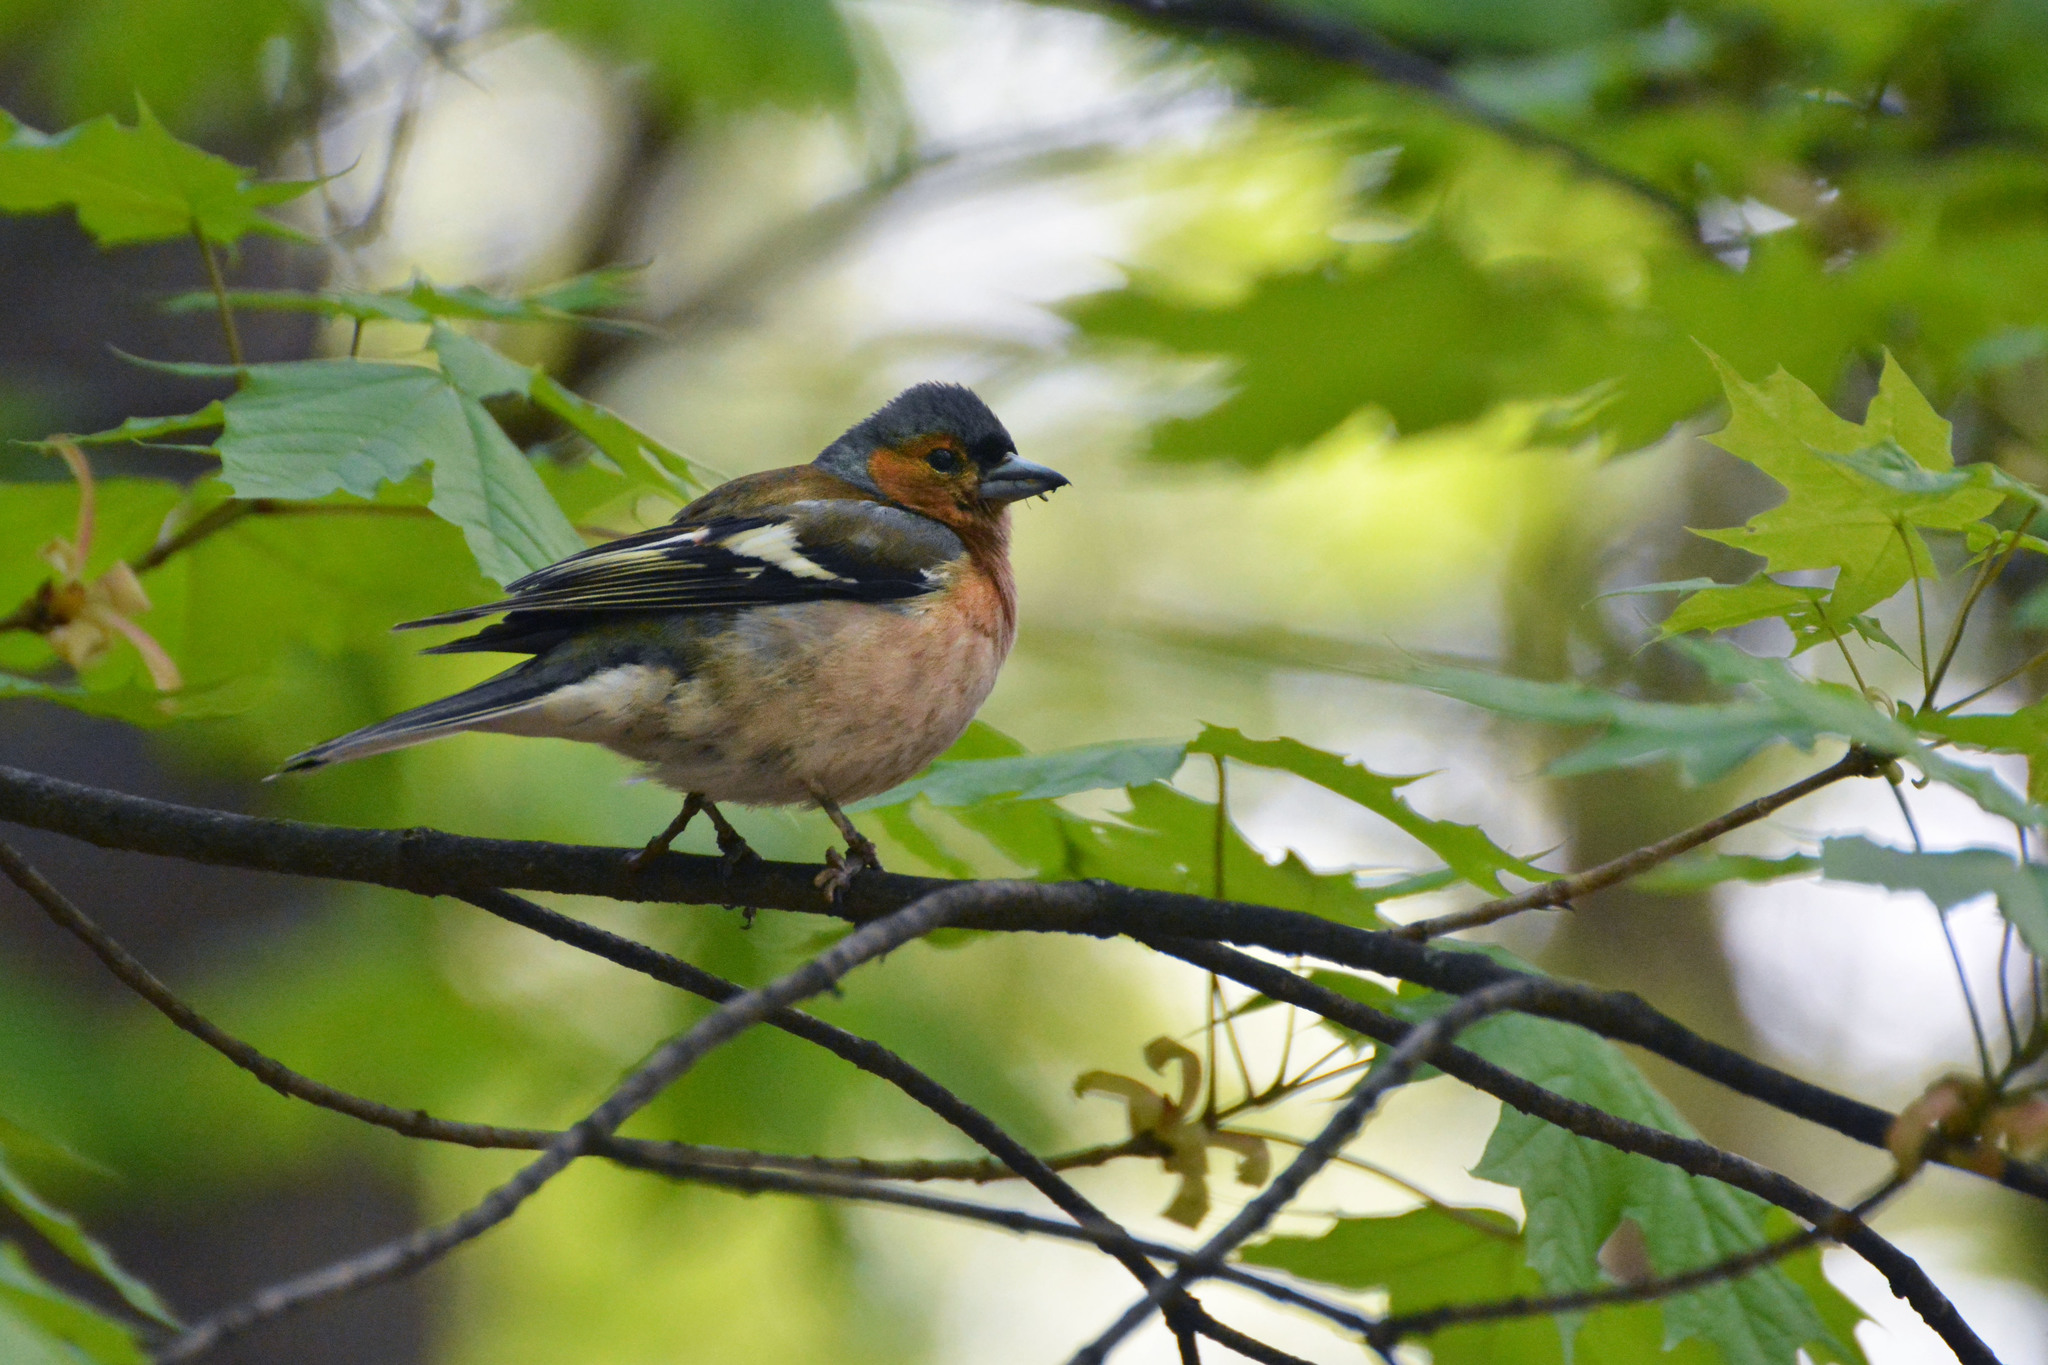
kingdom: Animalia
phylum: Chordata
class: Aves
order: Passeriformes
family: Fringillidae
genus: Fringilla
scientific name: Fringilla coelebs
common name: Common chaffinch
